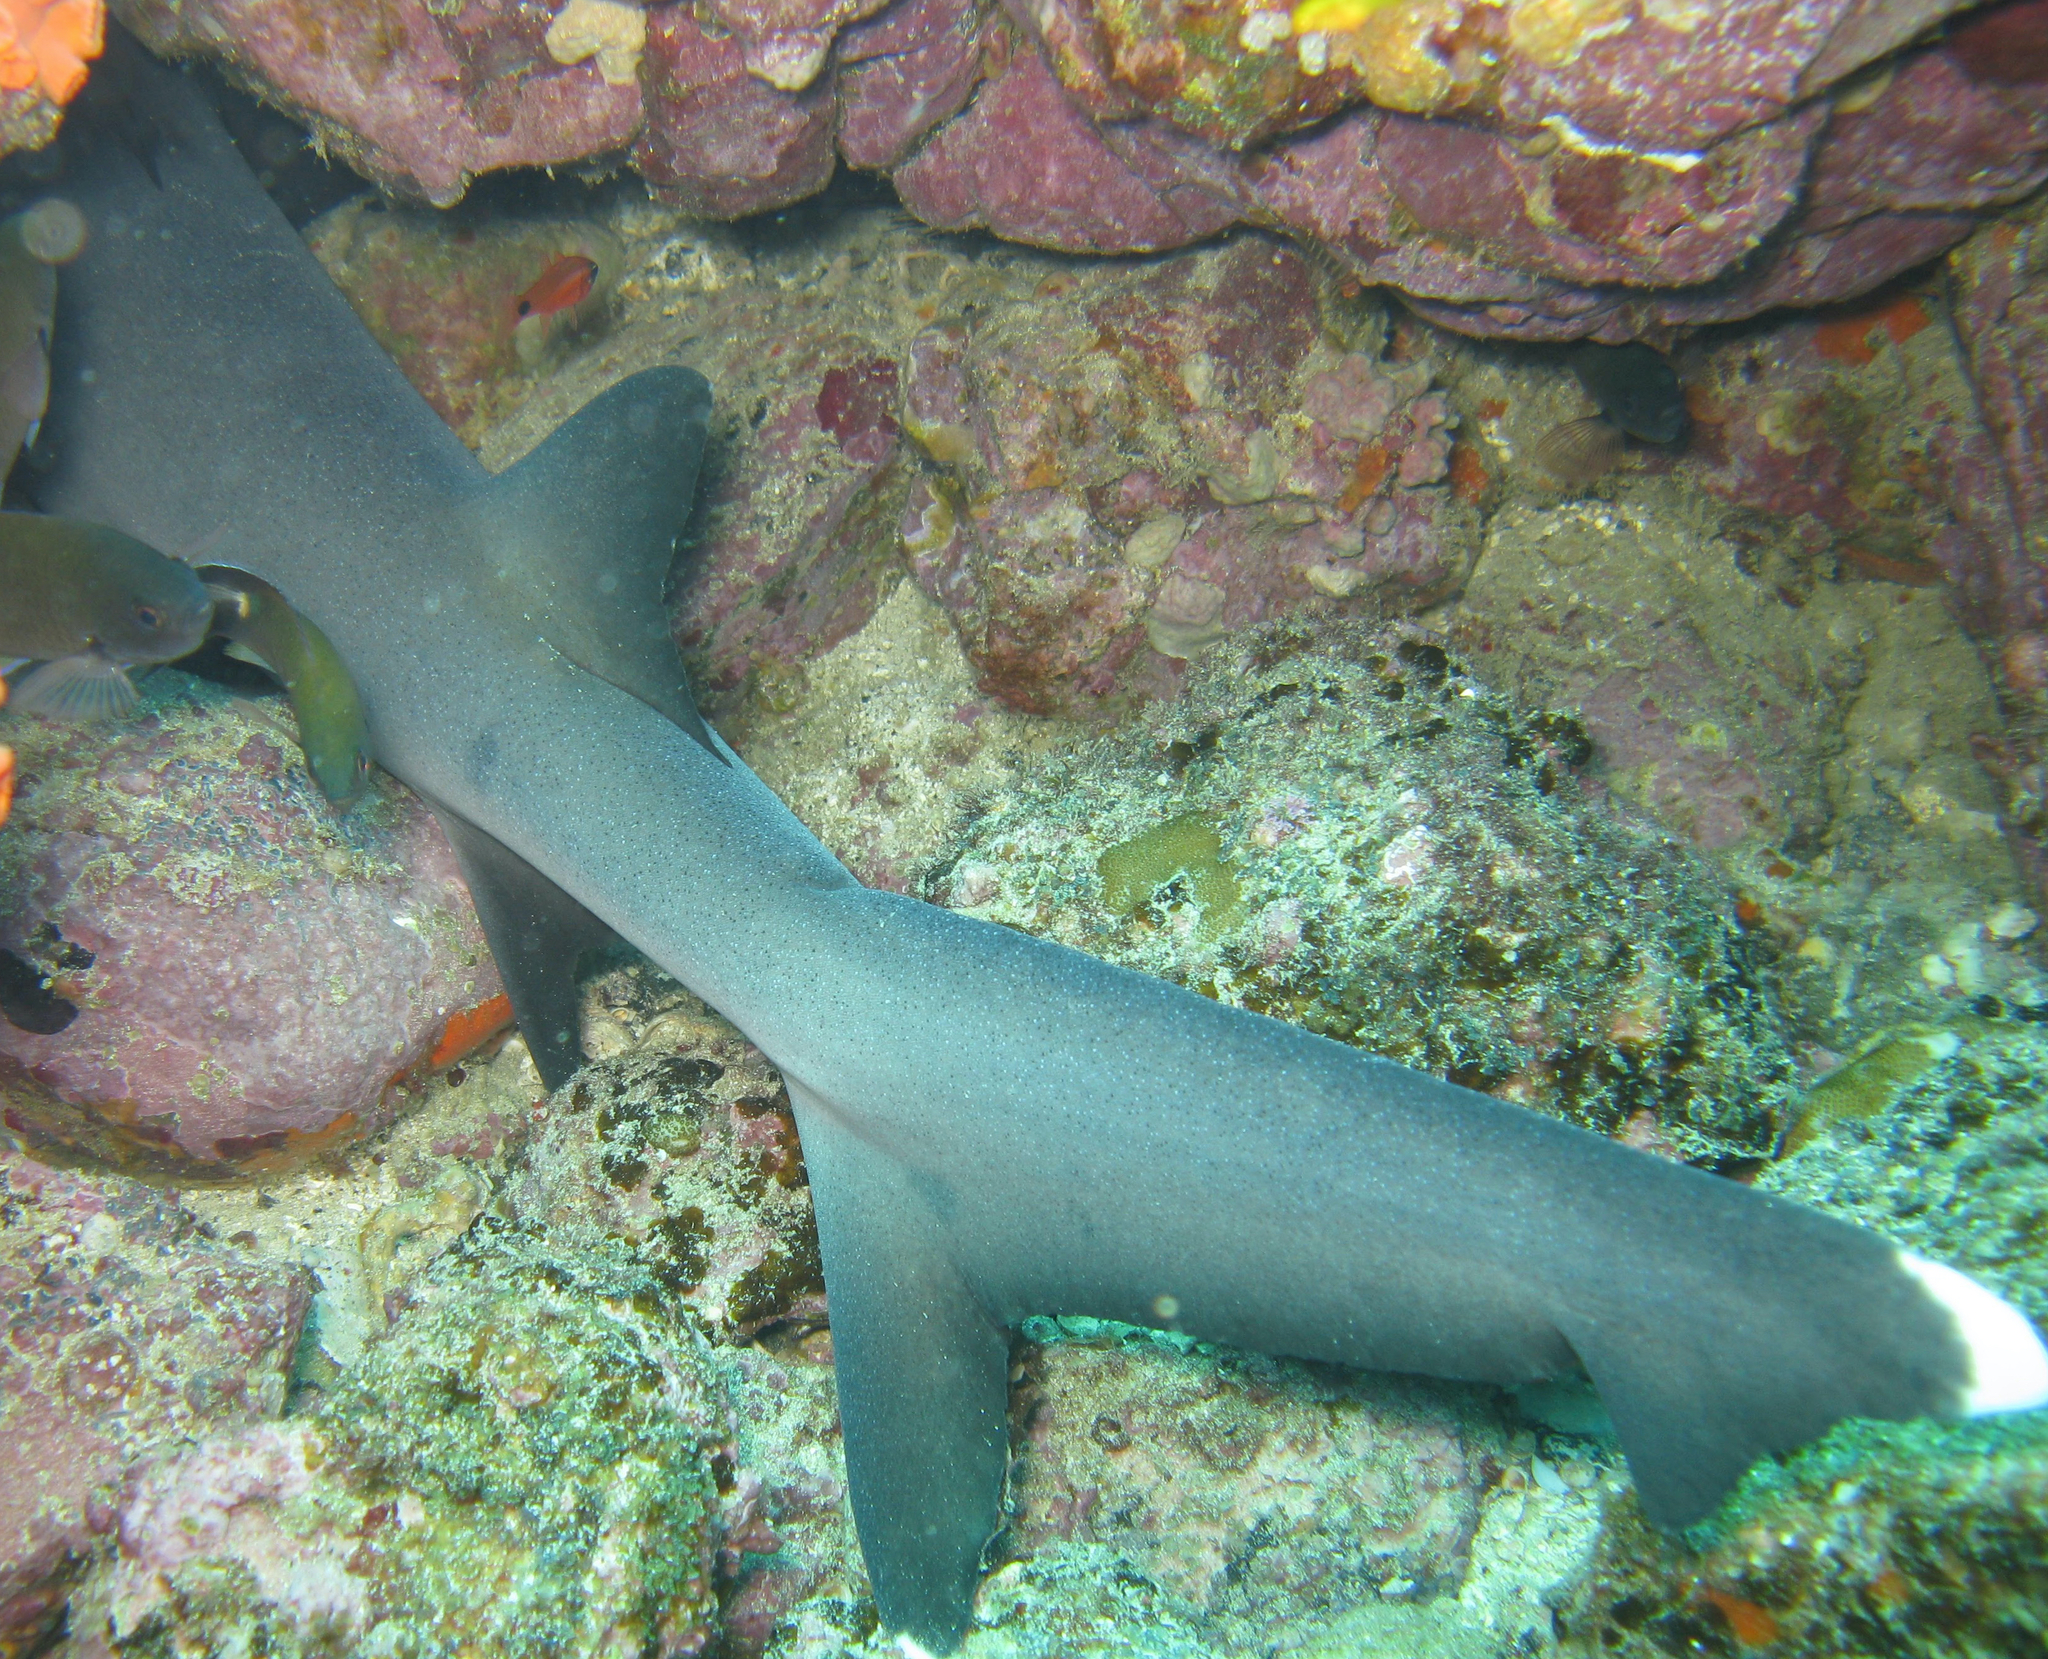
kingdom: Animalia
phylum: Chordata
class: Elasmobranchii
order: Carcharhiniformes
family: Carcharhinidae
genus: Triaenodon
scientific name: Triaenodon obesus
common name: Whitetip reef shark
